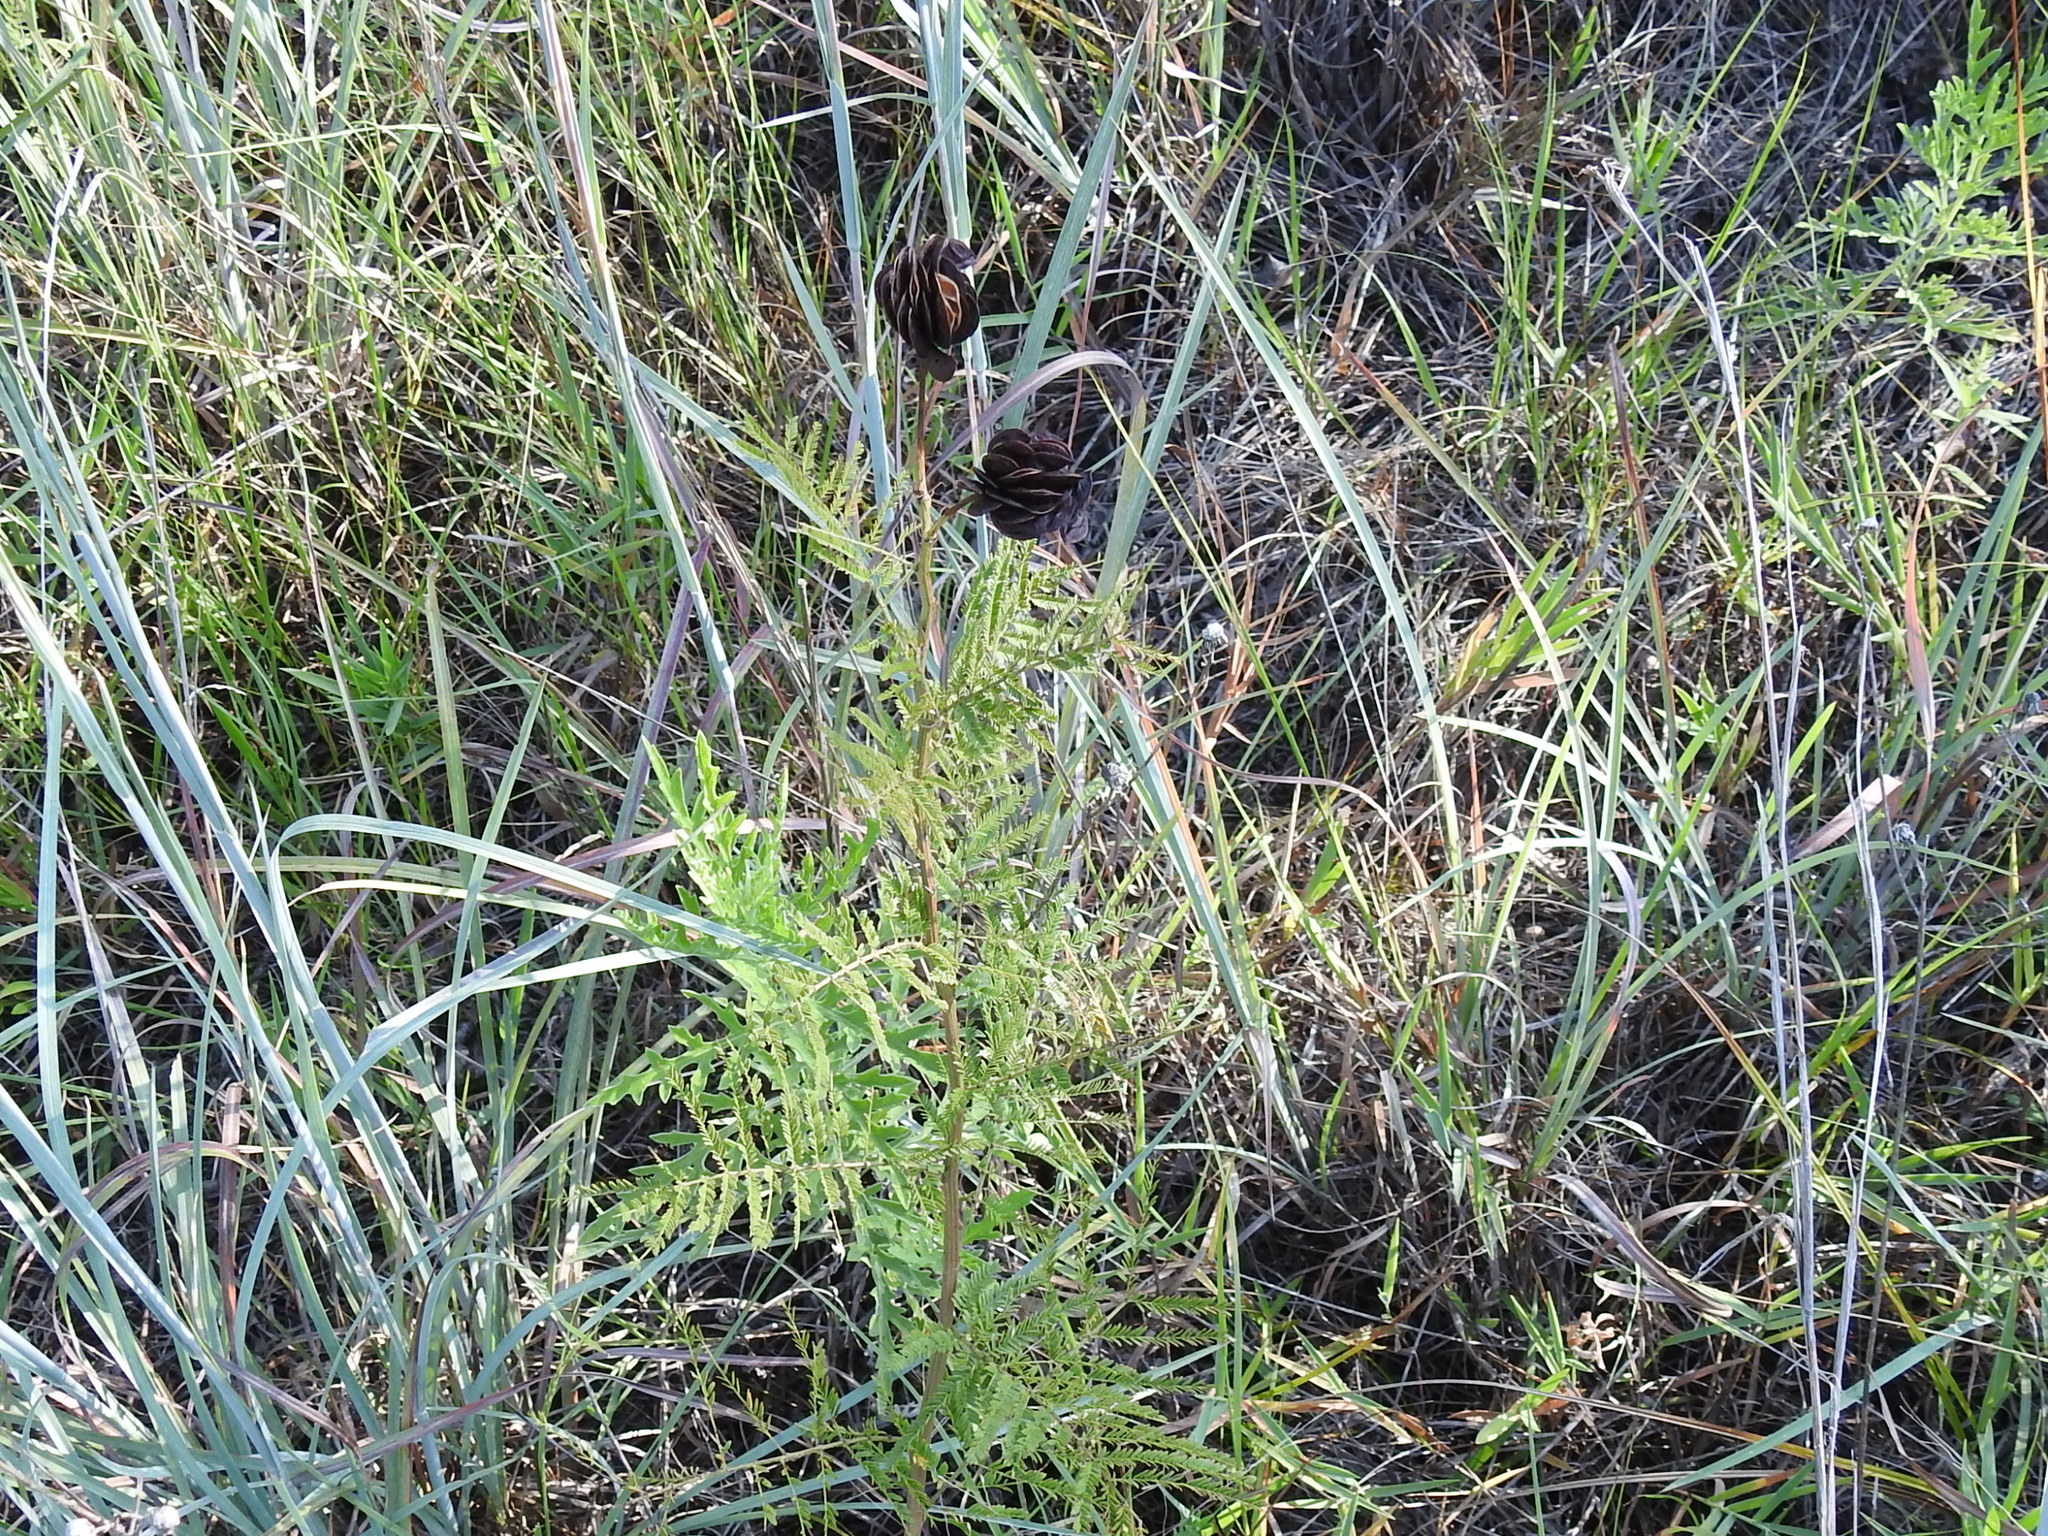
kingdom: Plantae
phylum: Tracheophyta
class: Magnoliopsida
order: Fabales
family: Fabaceae
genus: Desmanthus
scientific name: Desmanthus illinoensis
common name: Illinois bundle-flower
